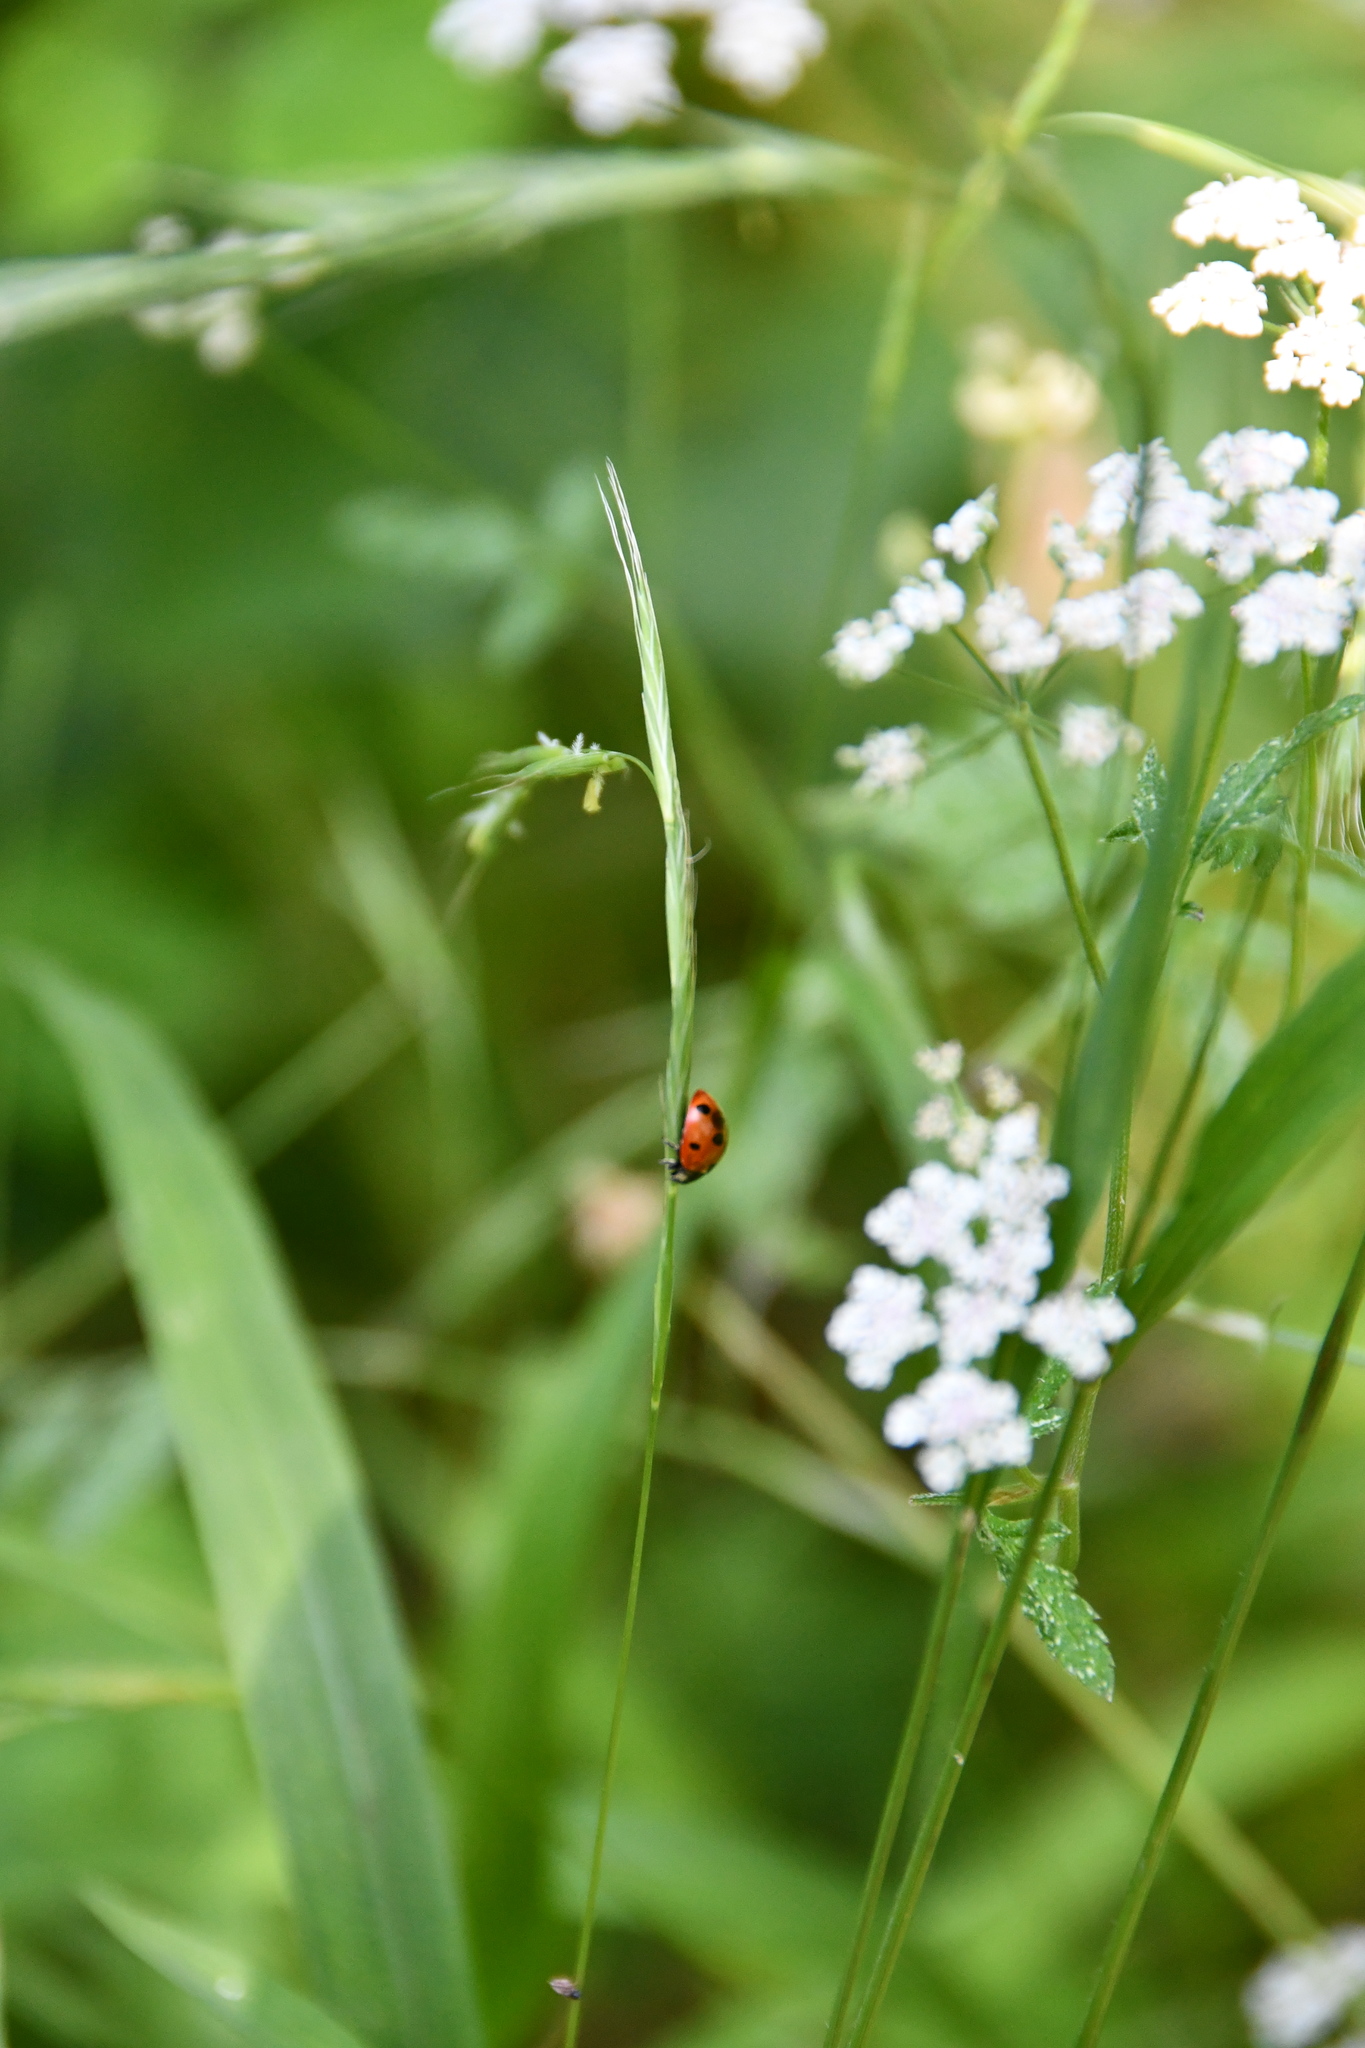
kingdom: Animalia
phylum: Arthropoda
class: Insecta
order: Coleoptera
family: Coccinellidae
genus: Coccinella
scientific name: Coccinella septempunctata
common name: Sevenspotted lady beetle
